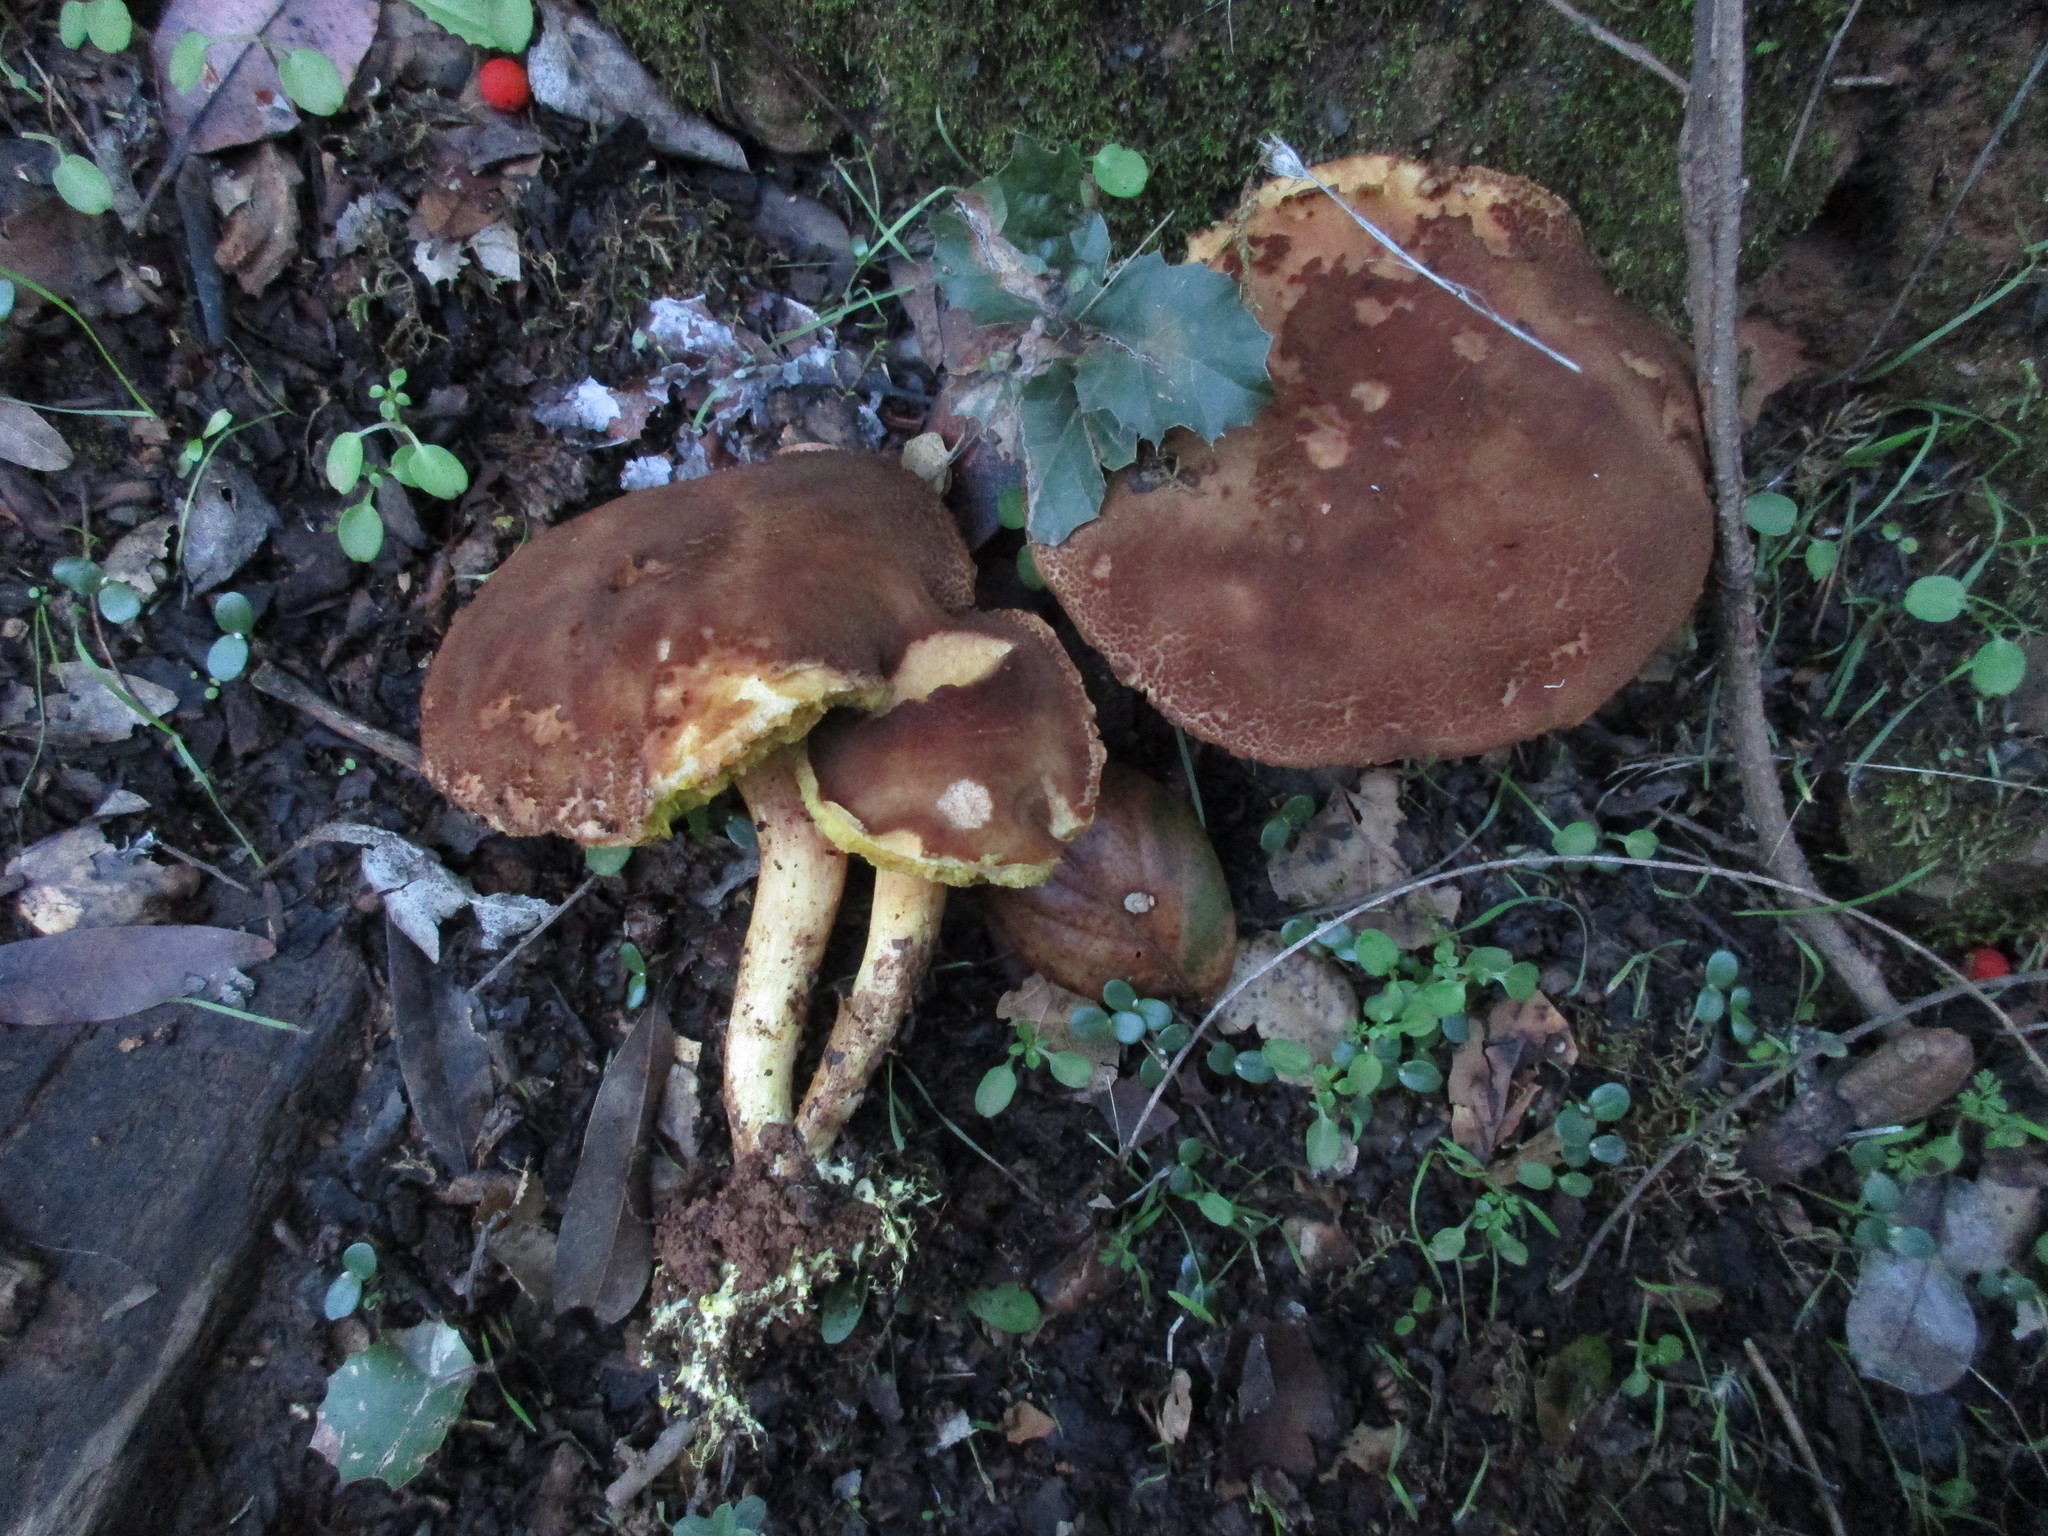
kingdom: Fungi
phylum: Basidiomycota
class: Agaricomycetes
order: Boletales
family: Boletaceae
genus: Xerocomus
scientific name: Xerocomus subtomentosus
